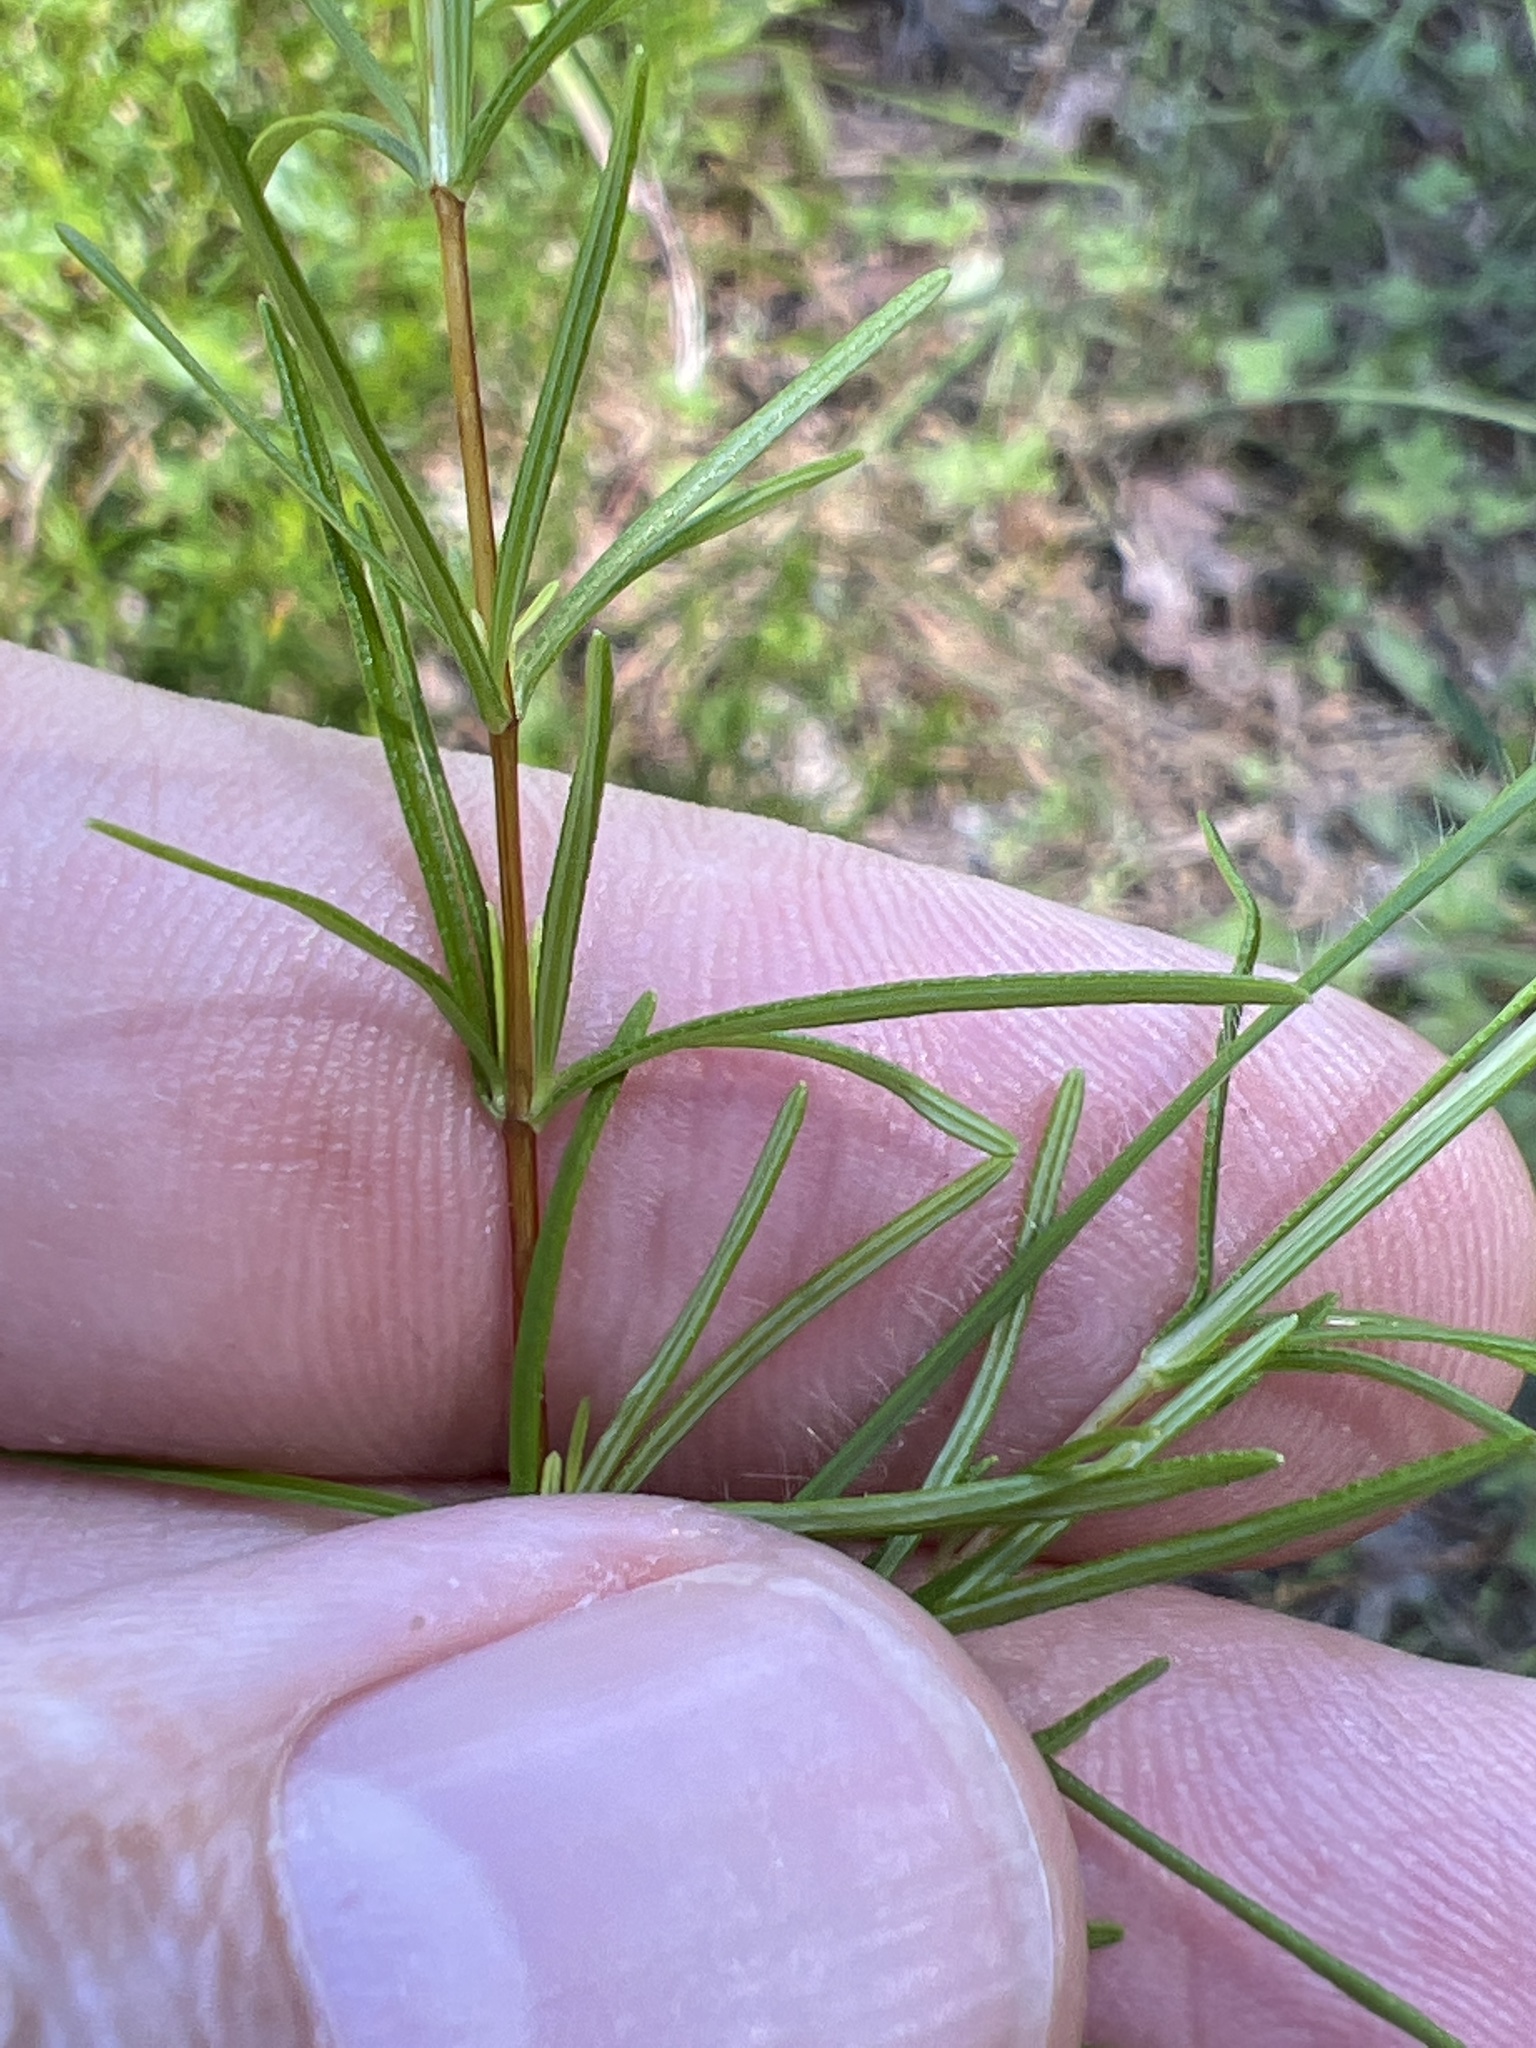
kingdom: Plantae
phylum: Tracheophyta
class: Magnoliopsida
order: Malpighiales
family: Hypericaceae
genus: Hypericum
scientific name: Hypericum lloydii
